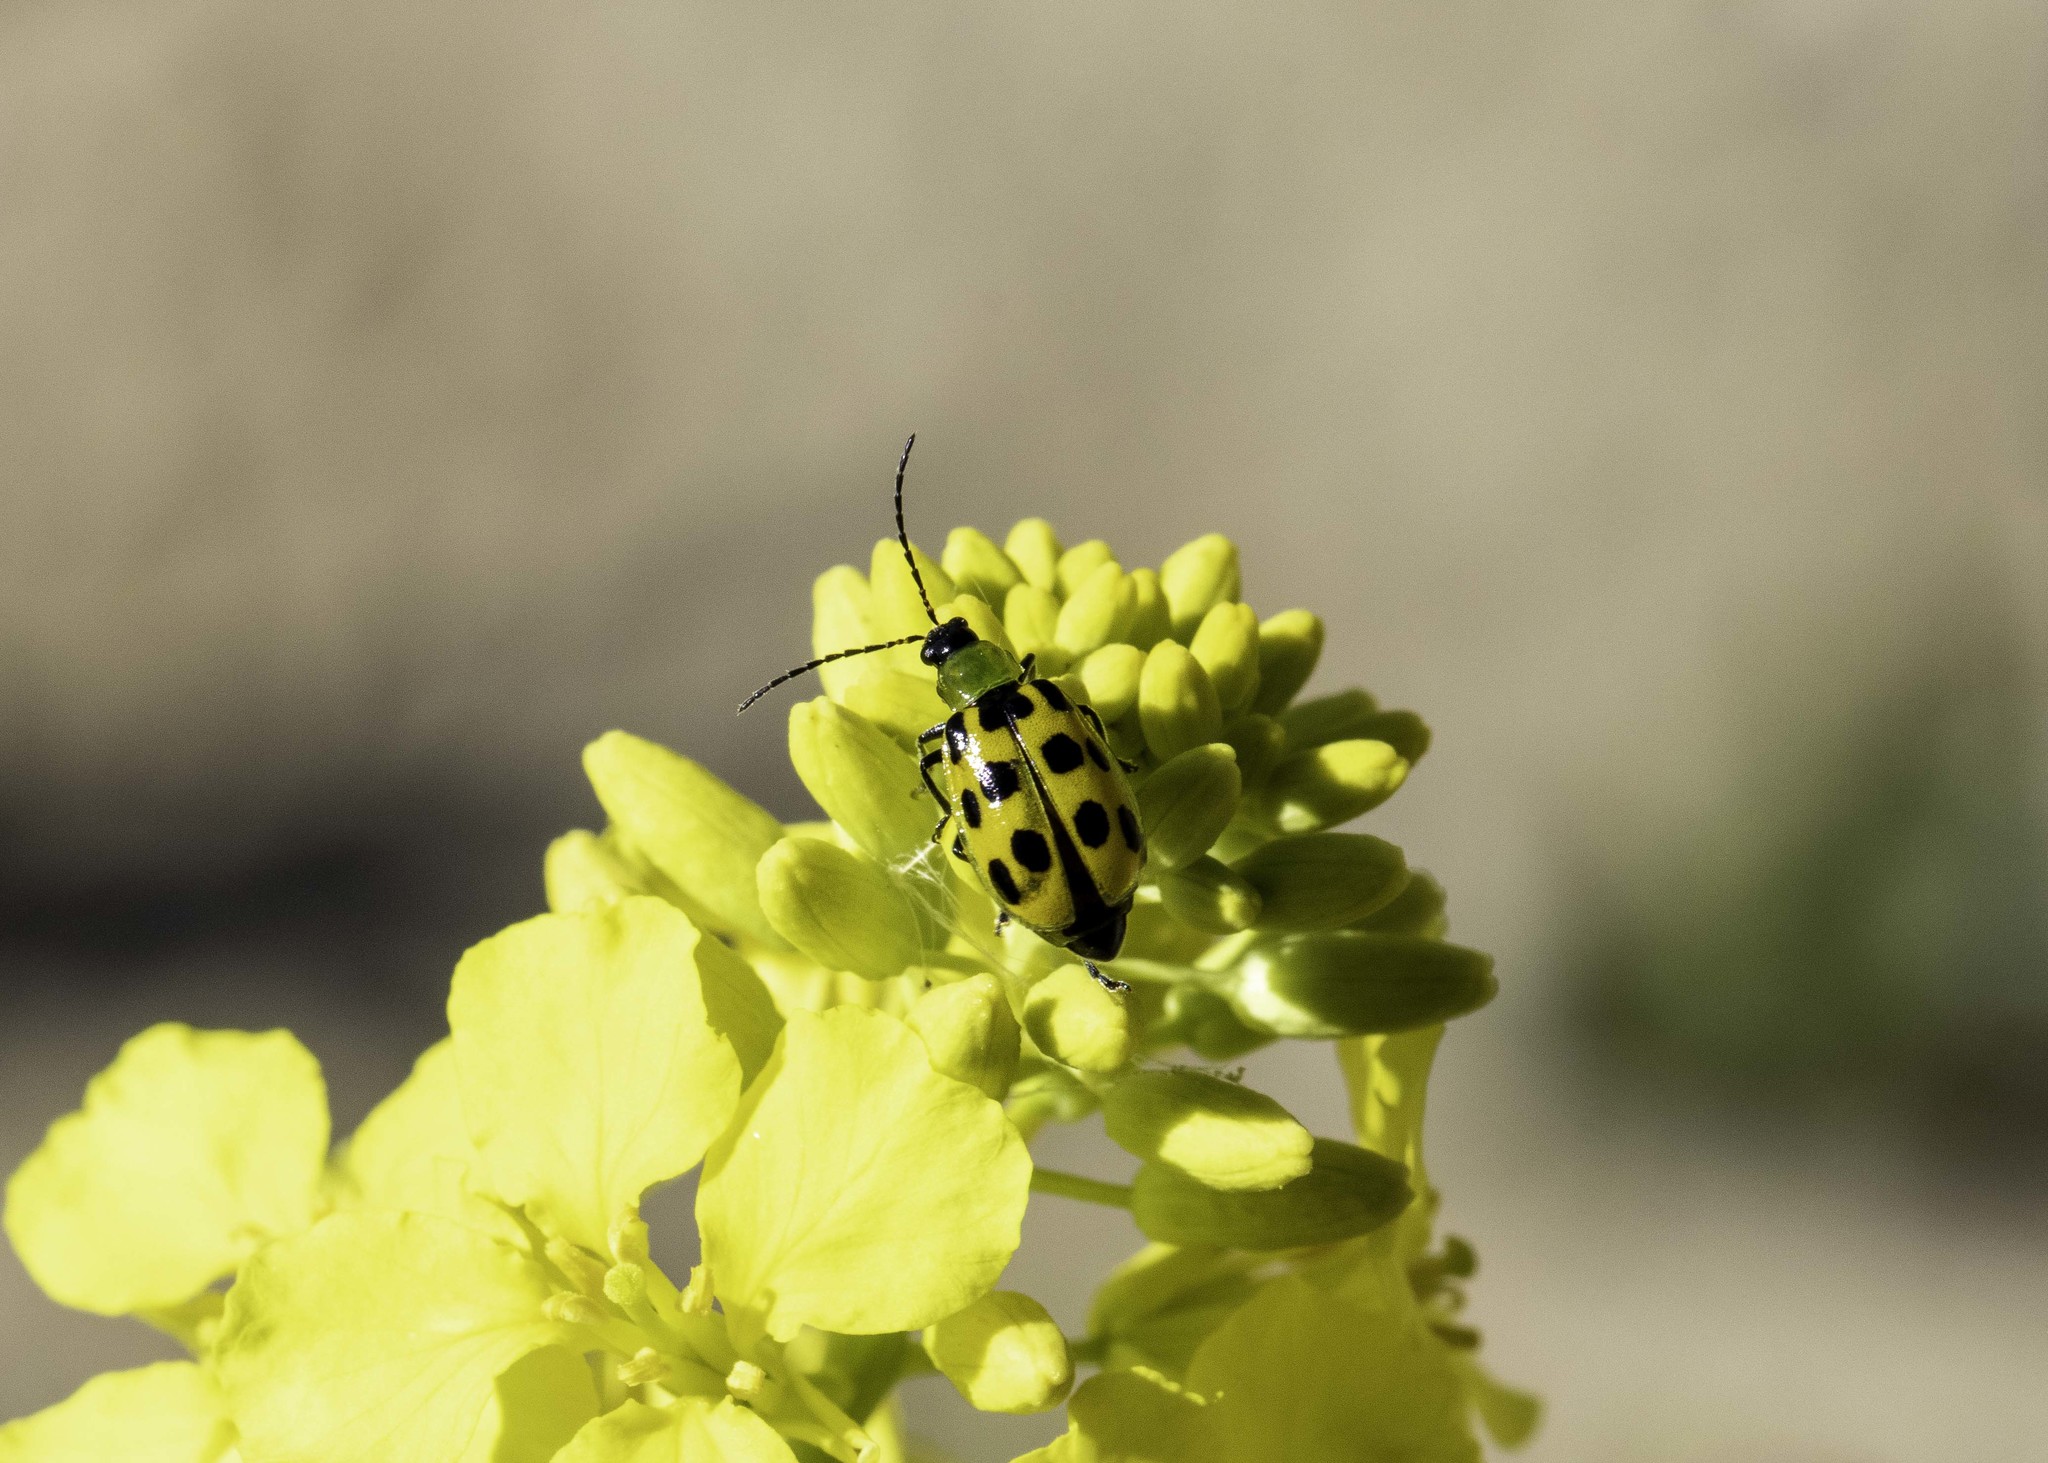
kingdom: Animalia
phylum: Arthropoda
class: Insecta
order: Coleoptera
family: Chrysomelidae
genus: Diabrotica
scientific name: Diabrotica undecimpunctata
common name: Spotted cucumber beetle
